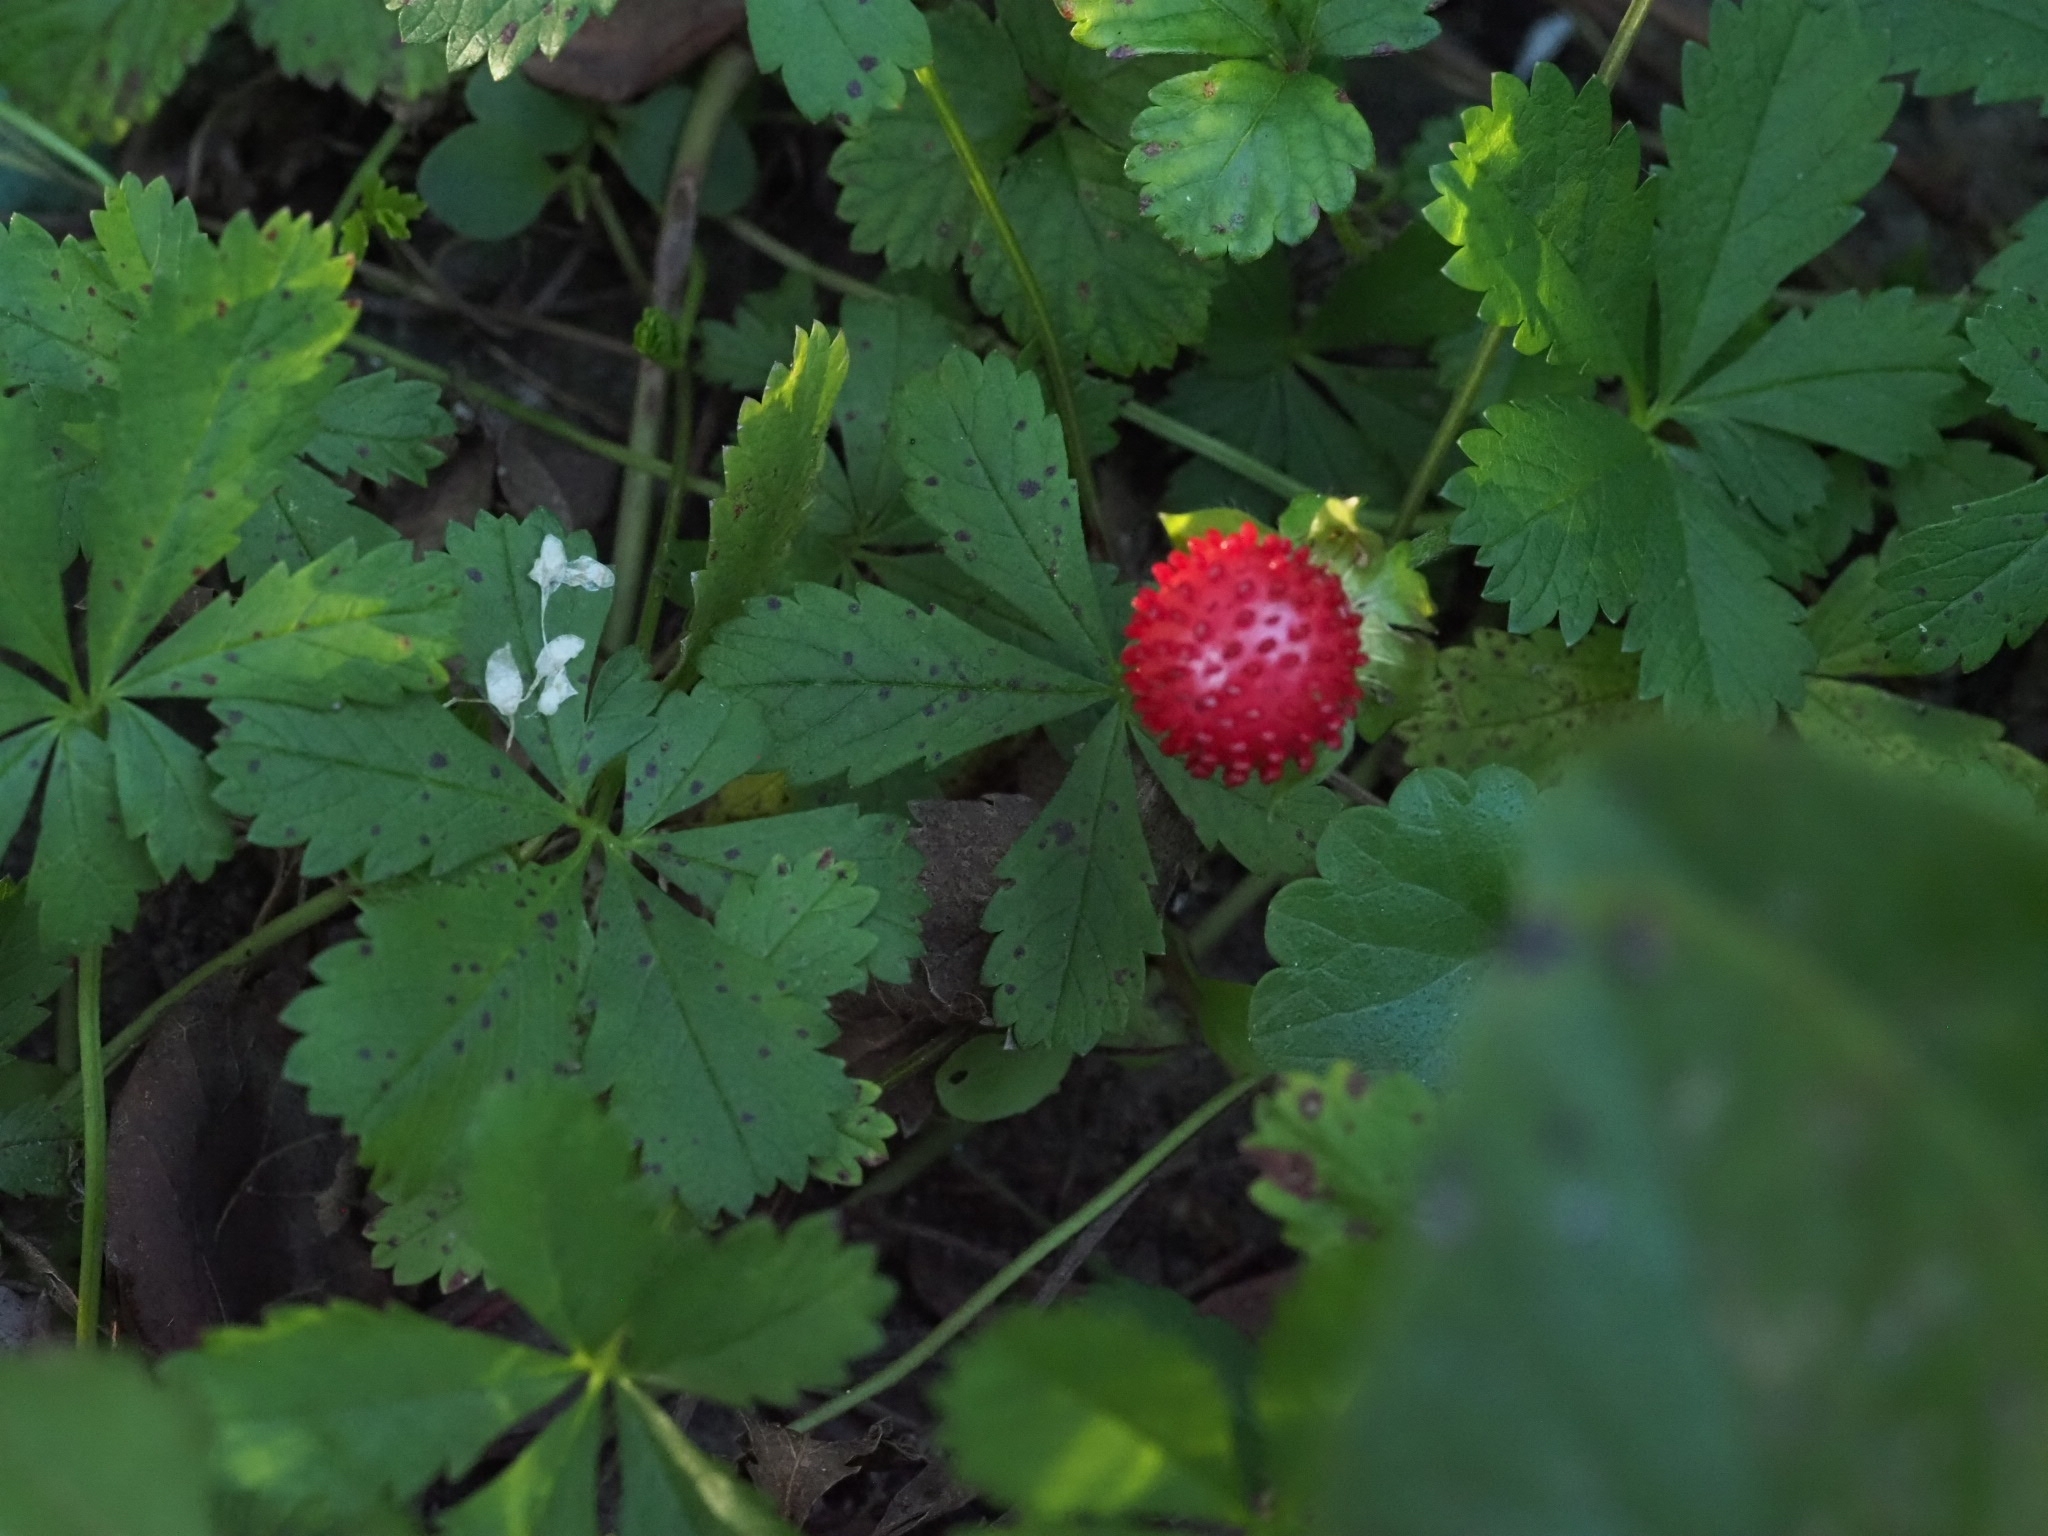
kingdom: Plantae
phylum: Tracheophyta
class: Magnoliopsida
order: Rosales
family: Rosaceae
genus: Potentilla
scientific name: Potentilla indica
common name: Yellow-flowered strawberry
